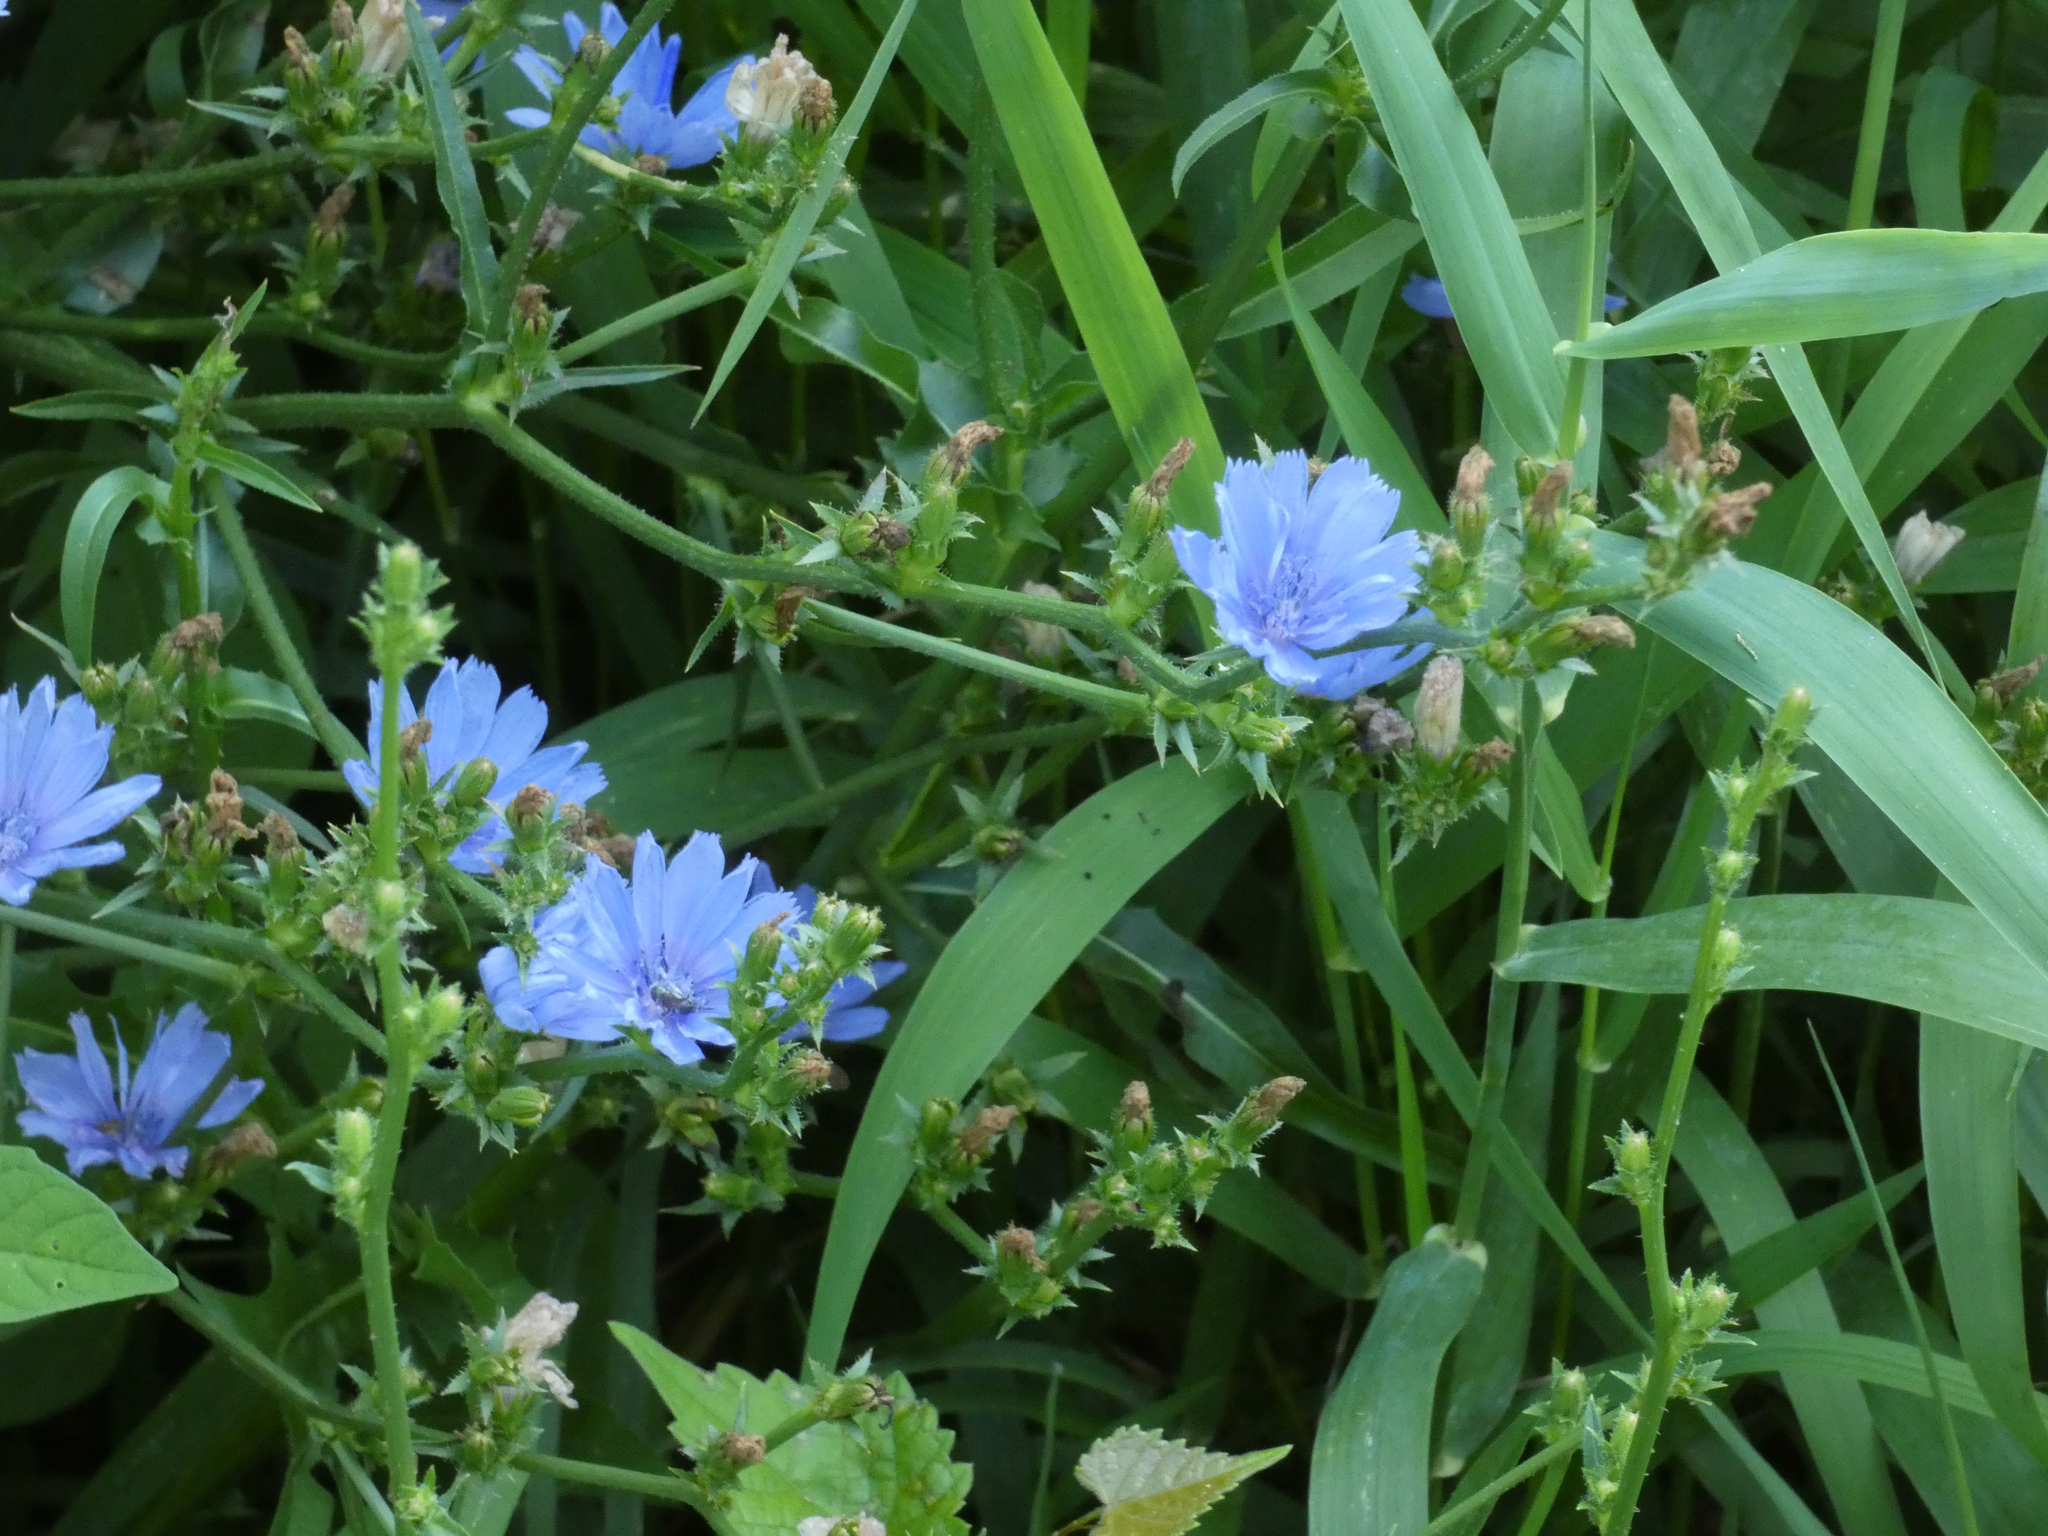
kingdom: Plantae
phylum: Tracheophyta
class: Magnoliopsida
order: Asterales
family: Asteraceae
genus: Cichorium
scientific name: Cichorium intybus
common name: Chicory
